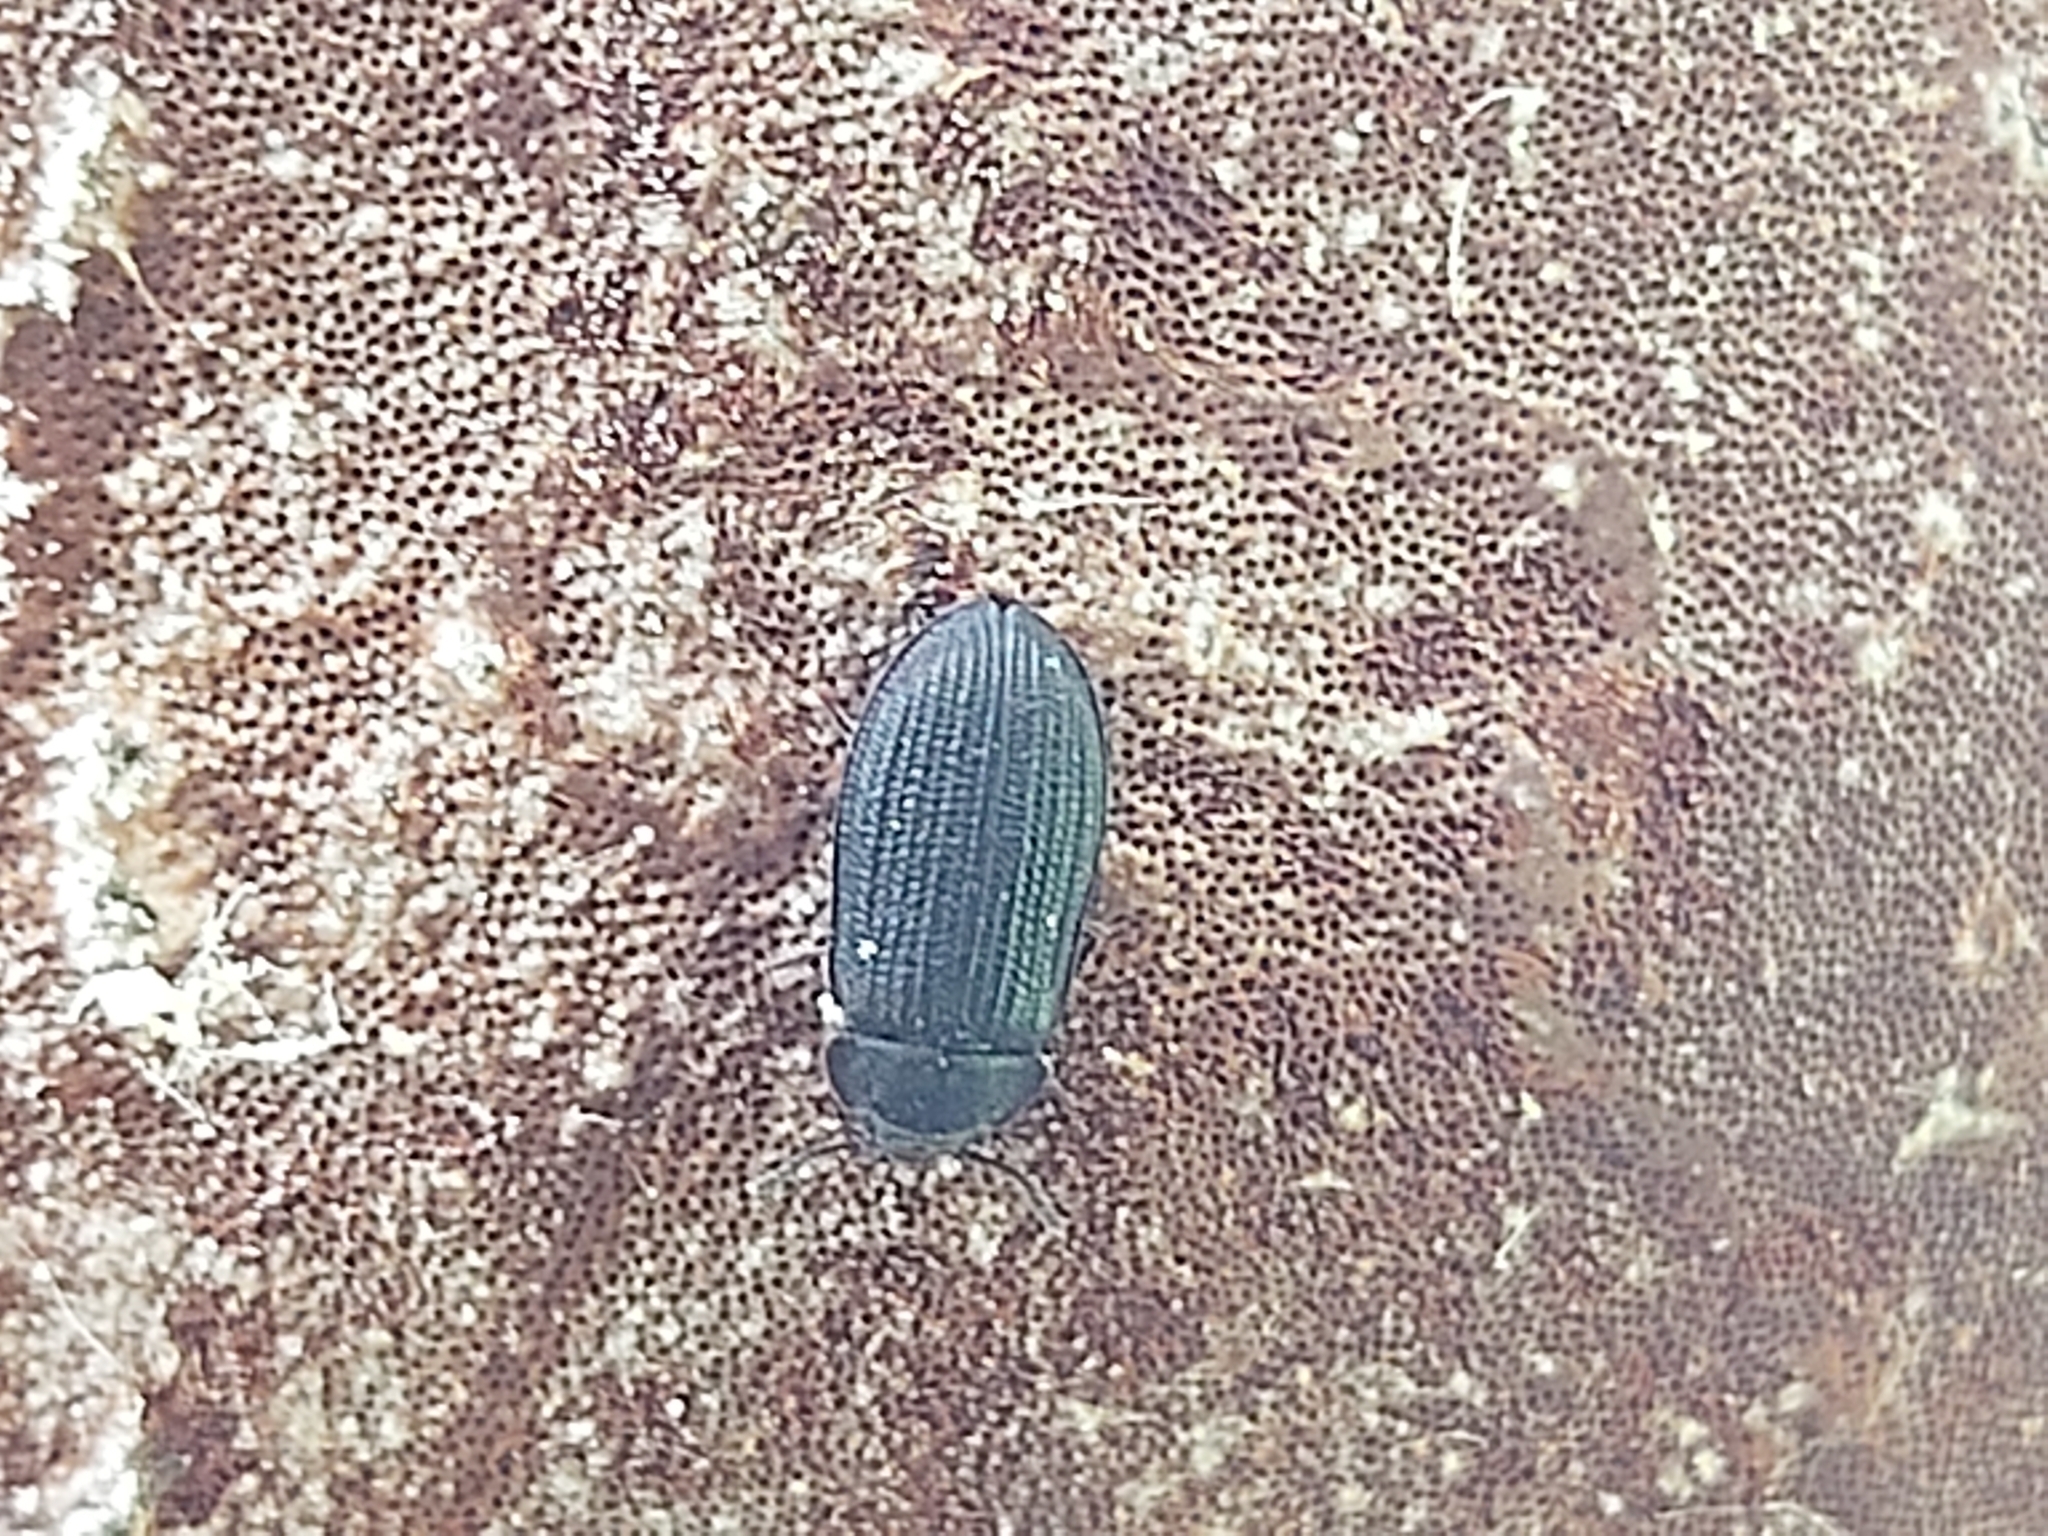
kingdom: Animalia
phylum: Arthropoda
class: Insecta
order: Coleoptera
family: Trogossitidae
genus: Grynocharis
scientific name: Grynocharis oblonga
